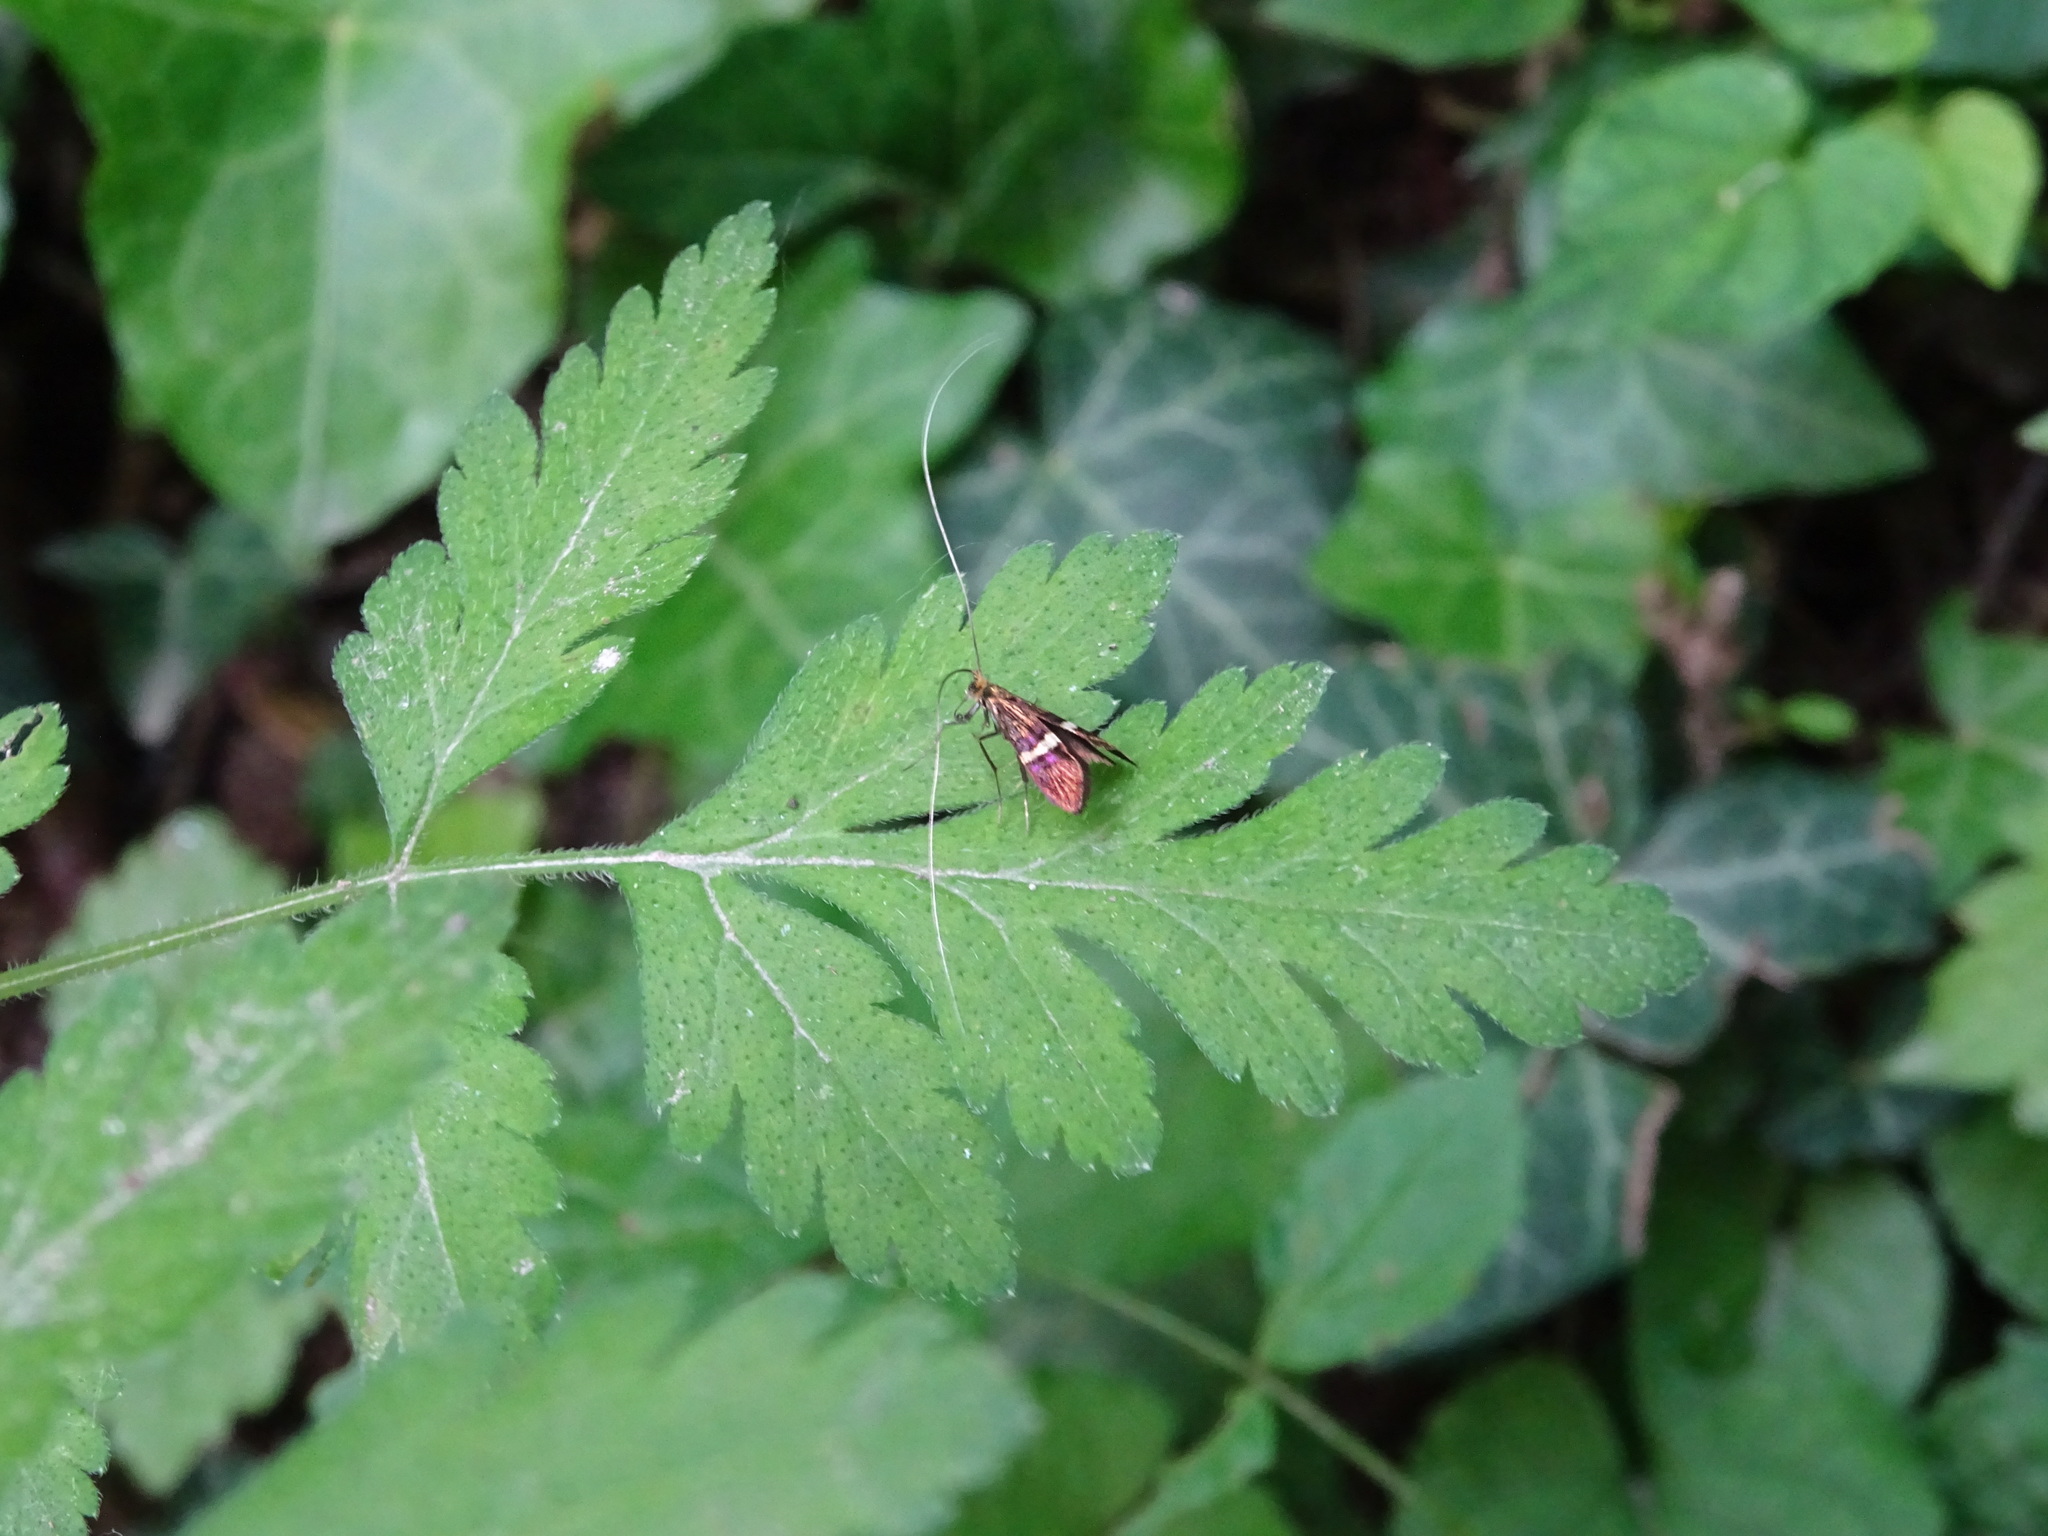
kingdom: Animalia
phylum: Arthropoda
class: Insecta
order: Lepidoptera
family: Adelidae
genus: Adela
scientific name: Adela croesella
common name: Small barred long-horn
